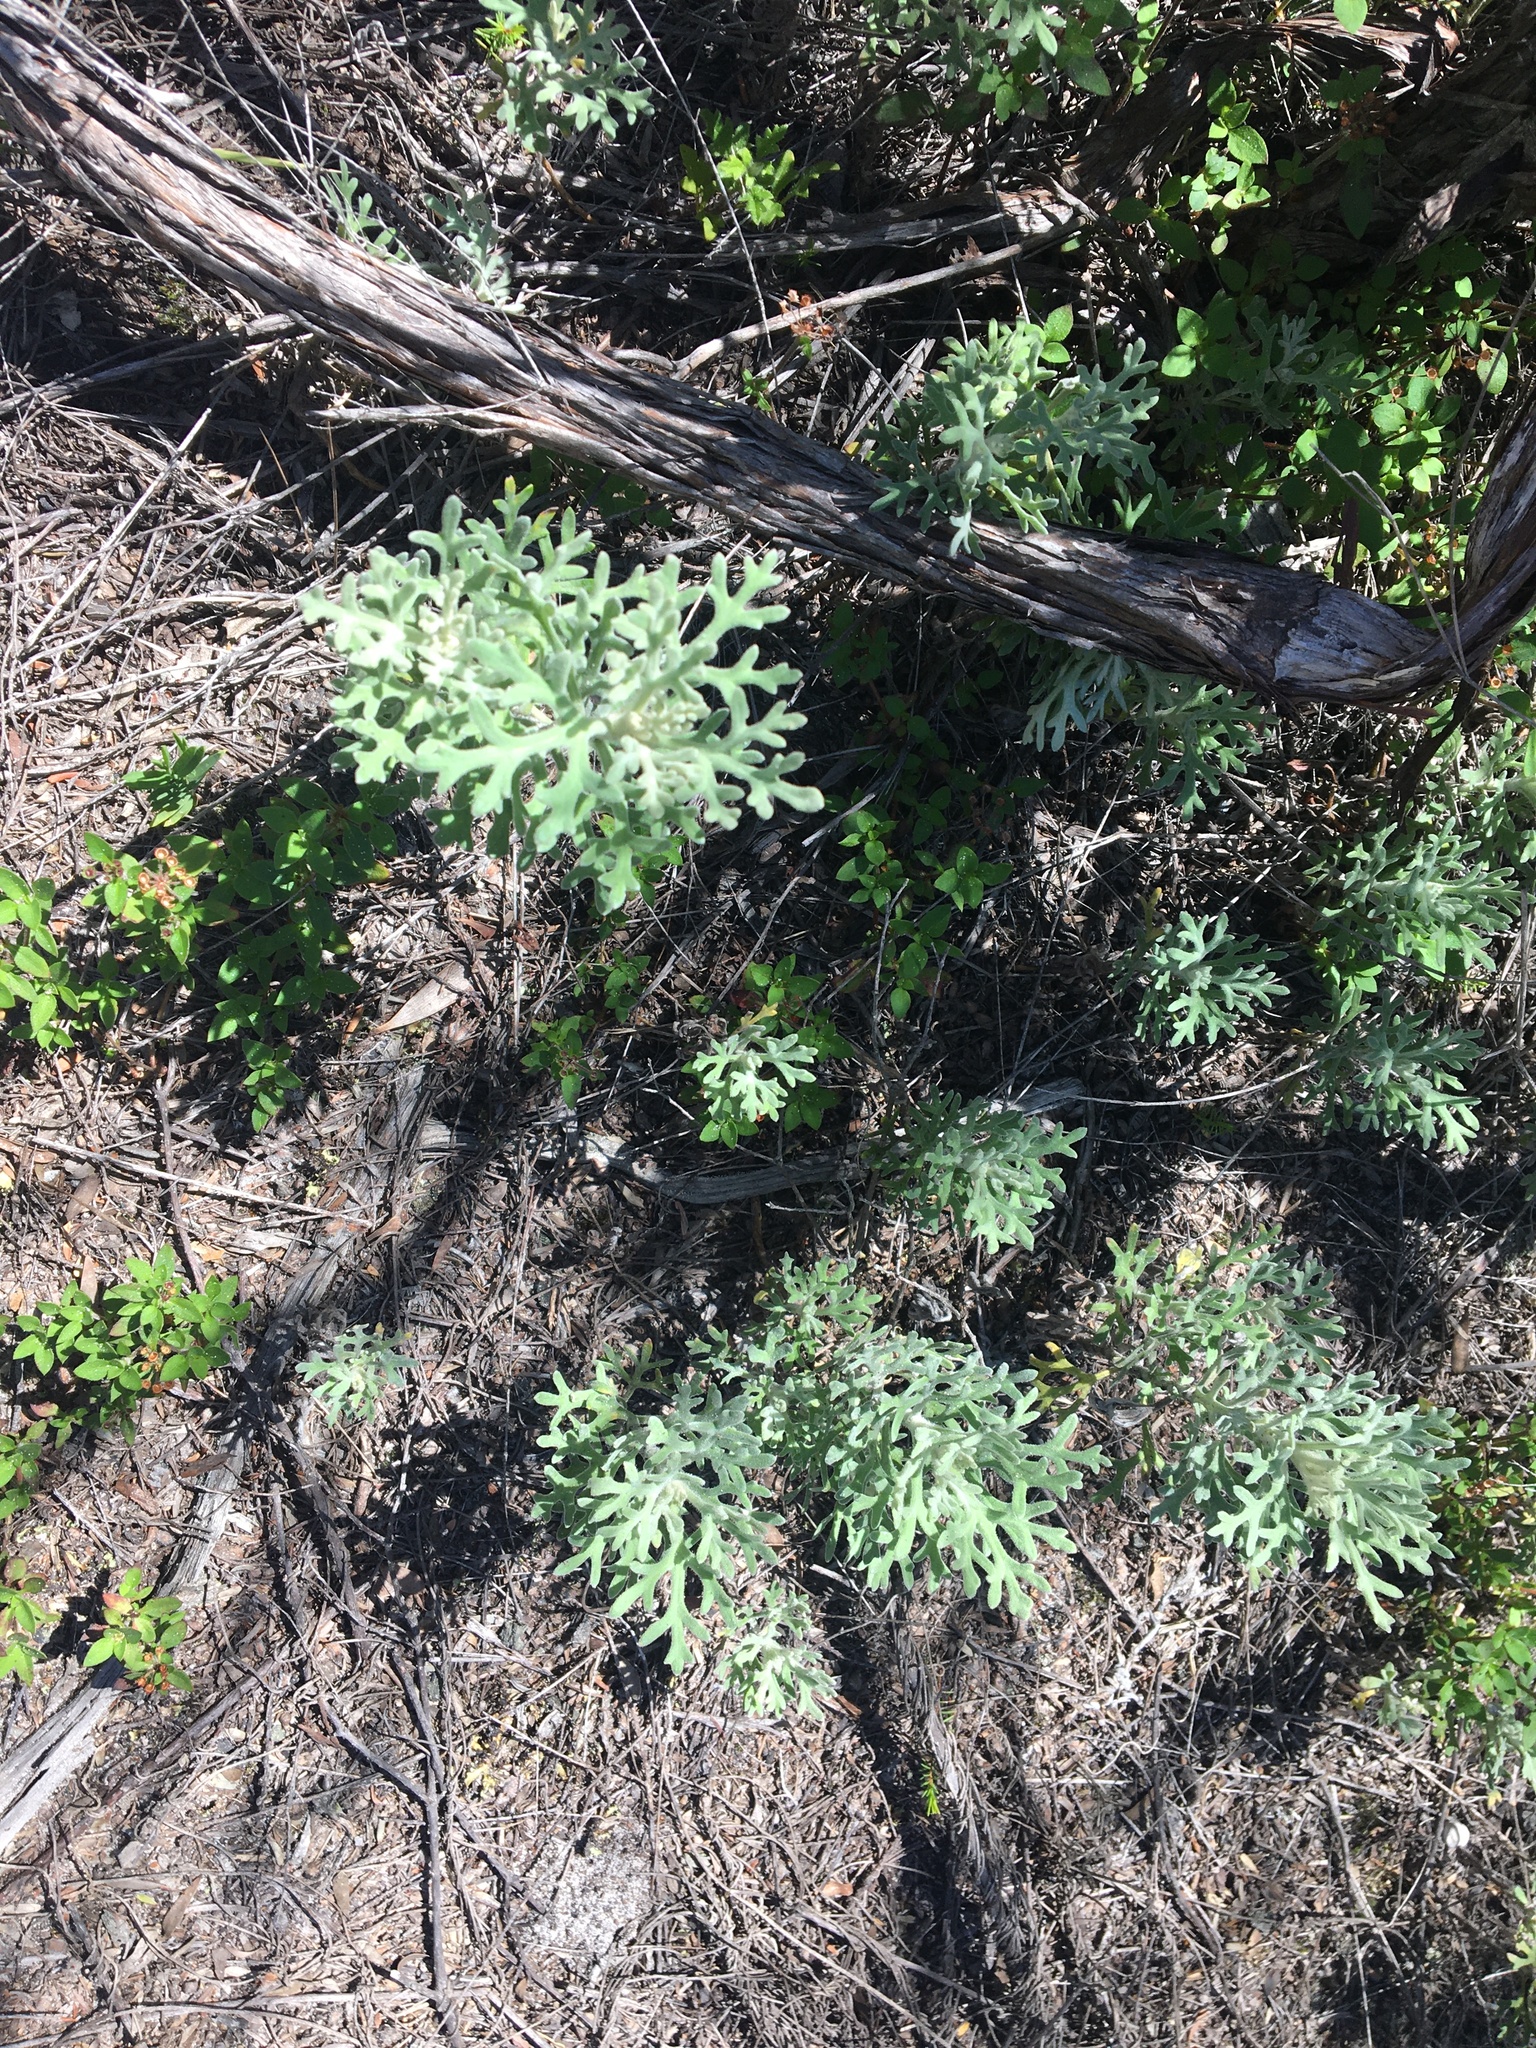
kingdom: Plantae
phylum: Tracheophyta
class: Magnoliopsida
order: Apiales
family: Apiaceae
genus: Actinotus
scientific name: Actinotus helianthi
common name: Flannel-flower
